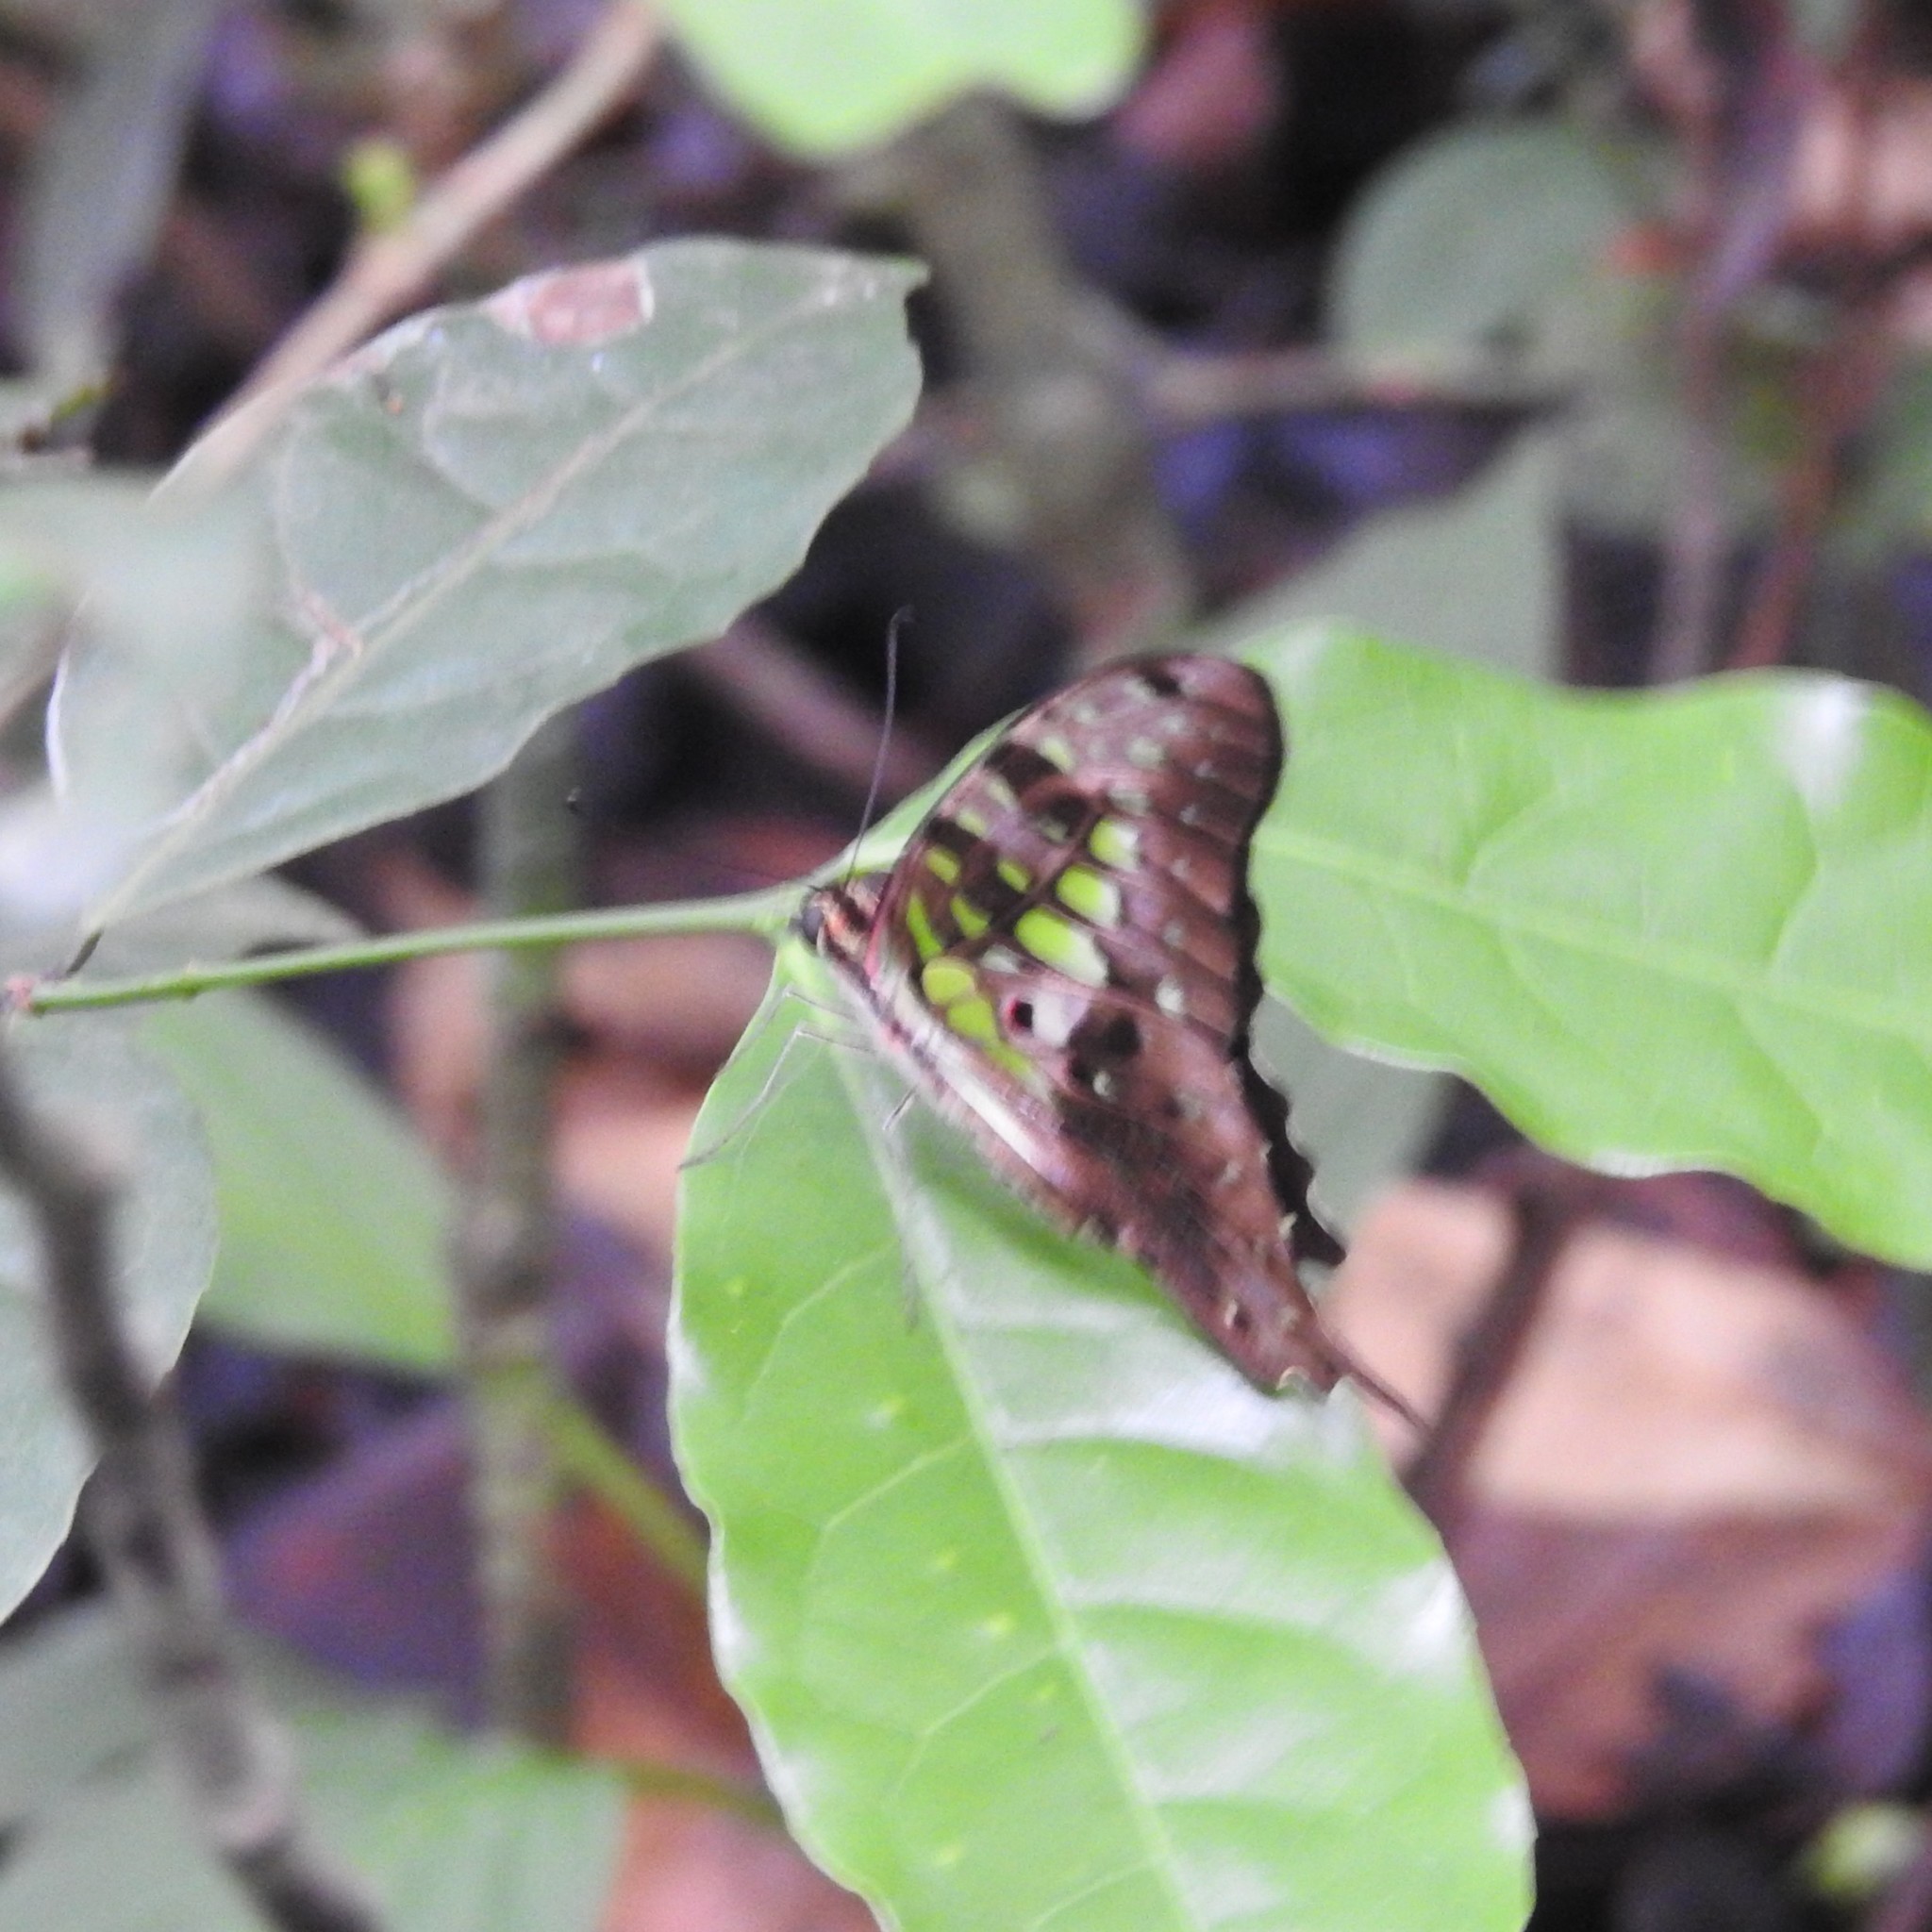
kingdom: Animalia
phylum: Arthropoda
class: Insecta
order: Lepidoptera
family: Papilionidae
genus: Graphium
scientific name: Graphium agamemnon
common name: Tailed jay
